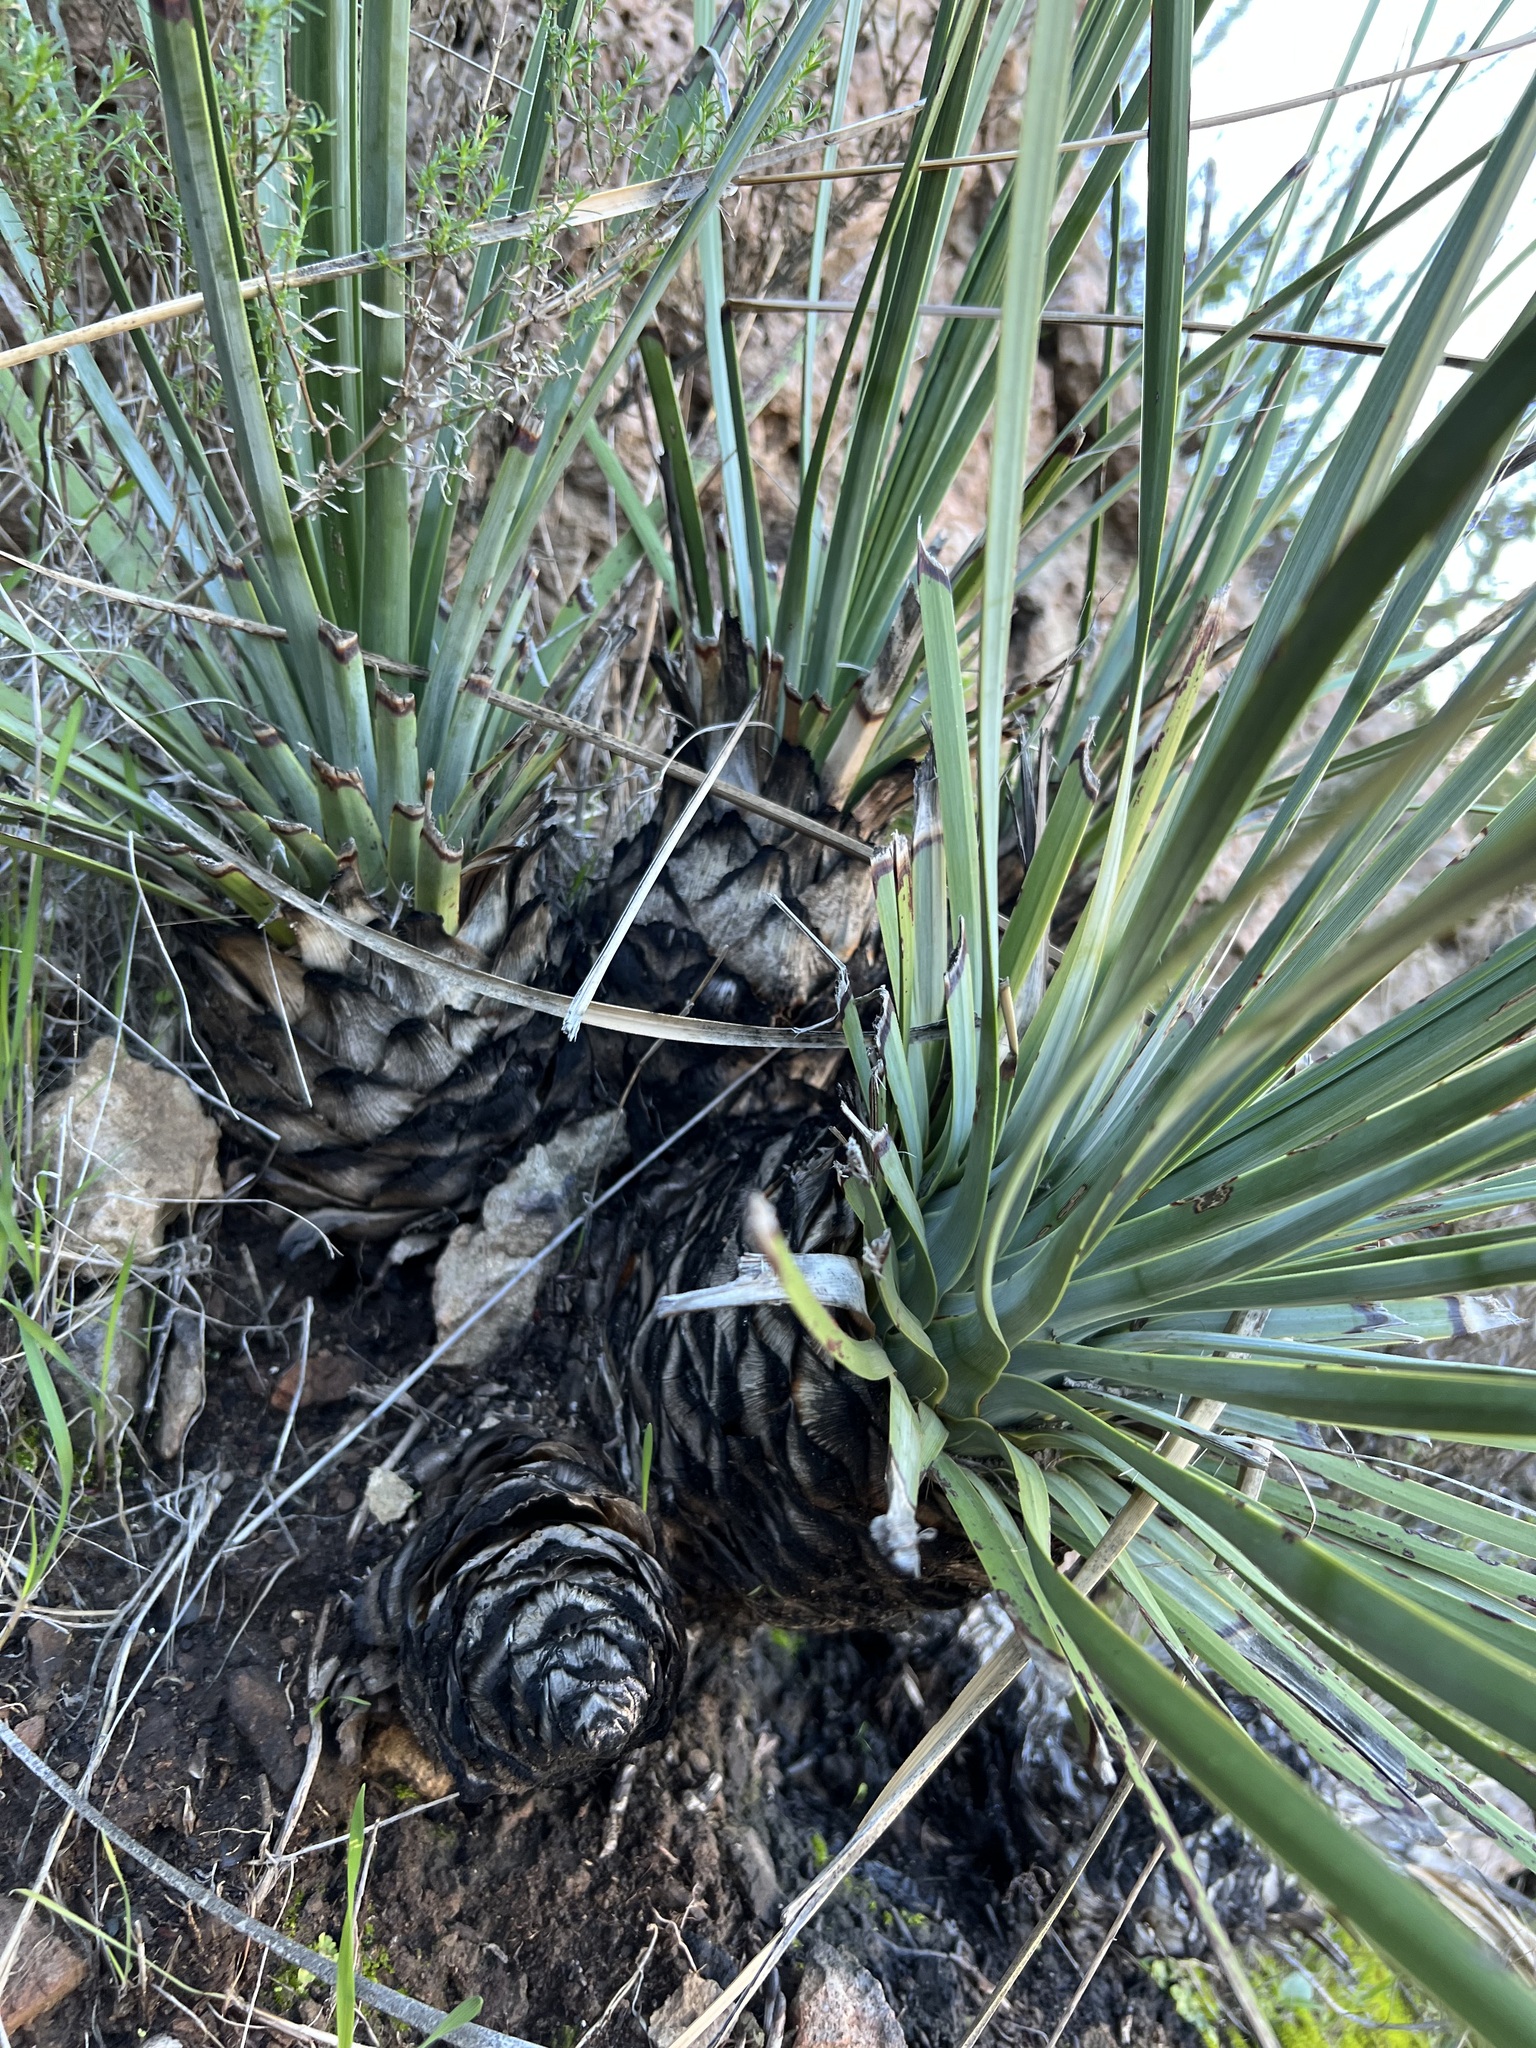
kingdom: Plantae
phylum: Tracheophyta
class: Liliopsida
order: Asparagales
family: Asparagaceae
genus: Hesperoyucca
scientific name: Hesperoyucca whipplei
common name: Our lord's-candle
